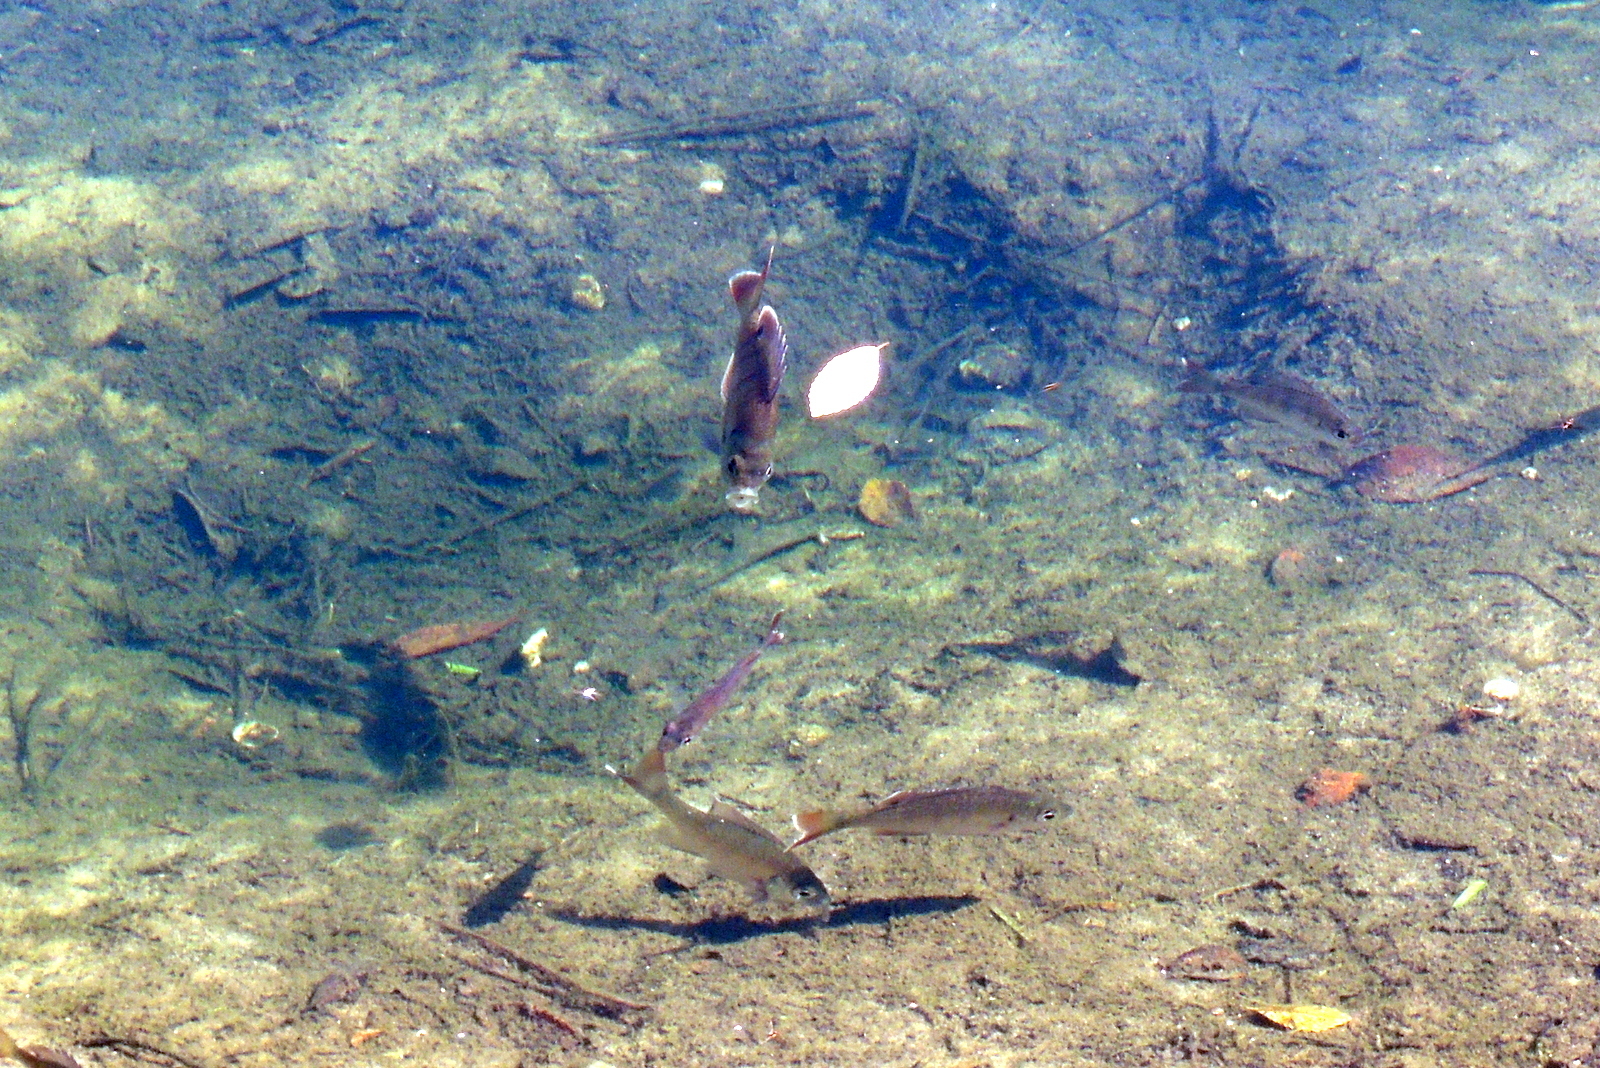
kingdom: Animalia
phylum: Chordata
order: Perciformes
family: Centrarchidae
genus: Lepomis
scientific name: Lepomis macrochirus
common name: Bluegill
